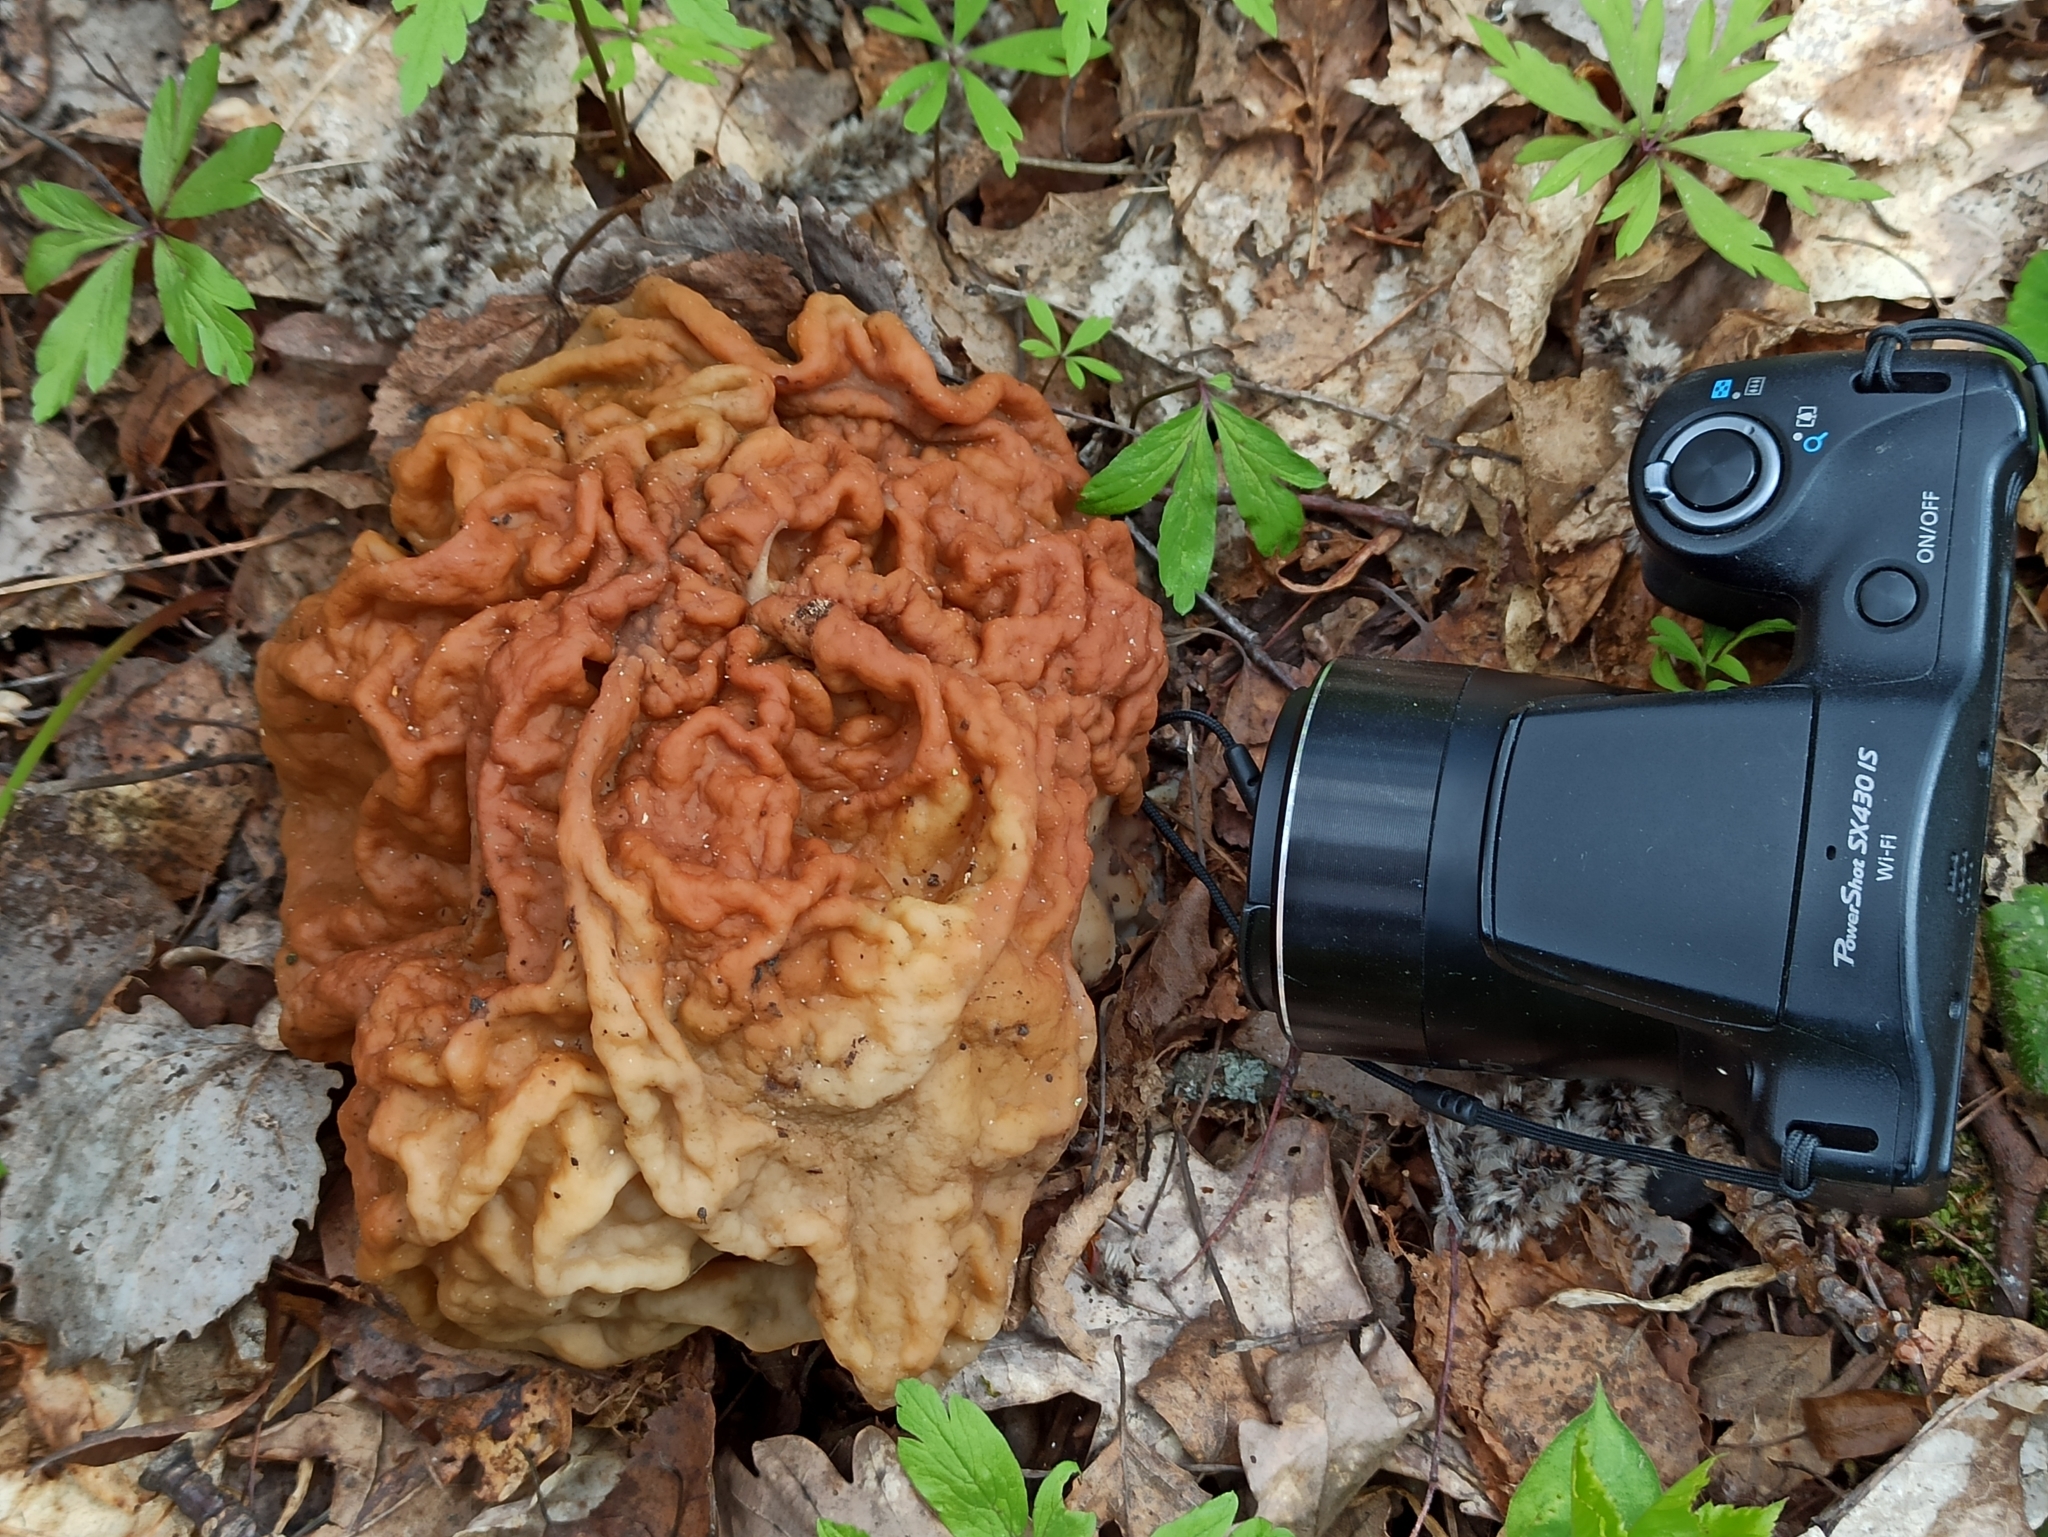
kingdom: Fungi
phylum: Ascomycota
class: Pezizomycetes
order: Pezizales
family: Discinaceae
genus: Gyromitra
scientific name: Gyromitra gigas
